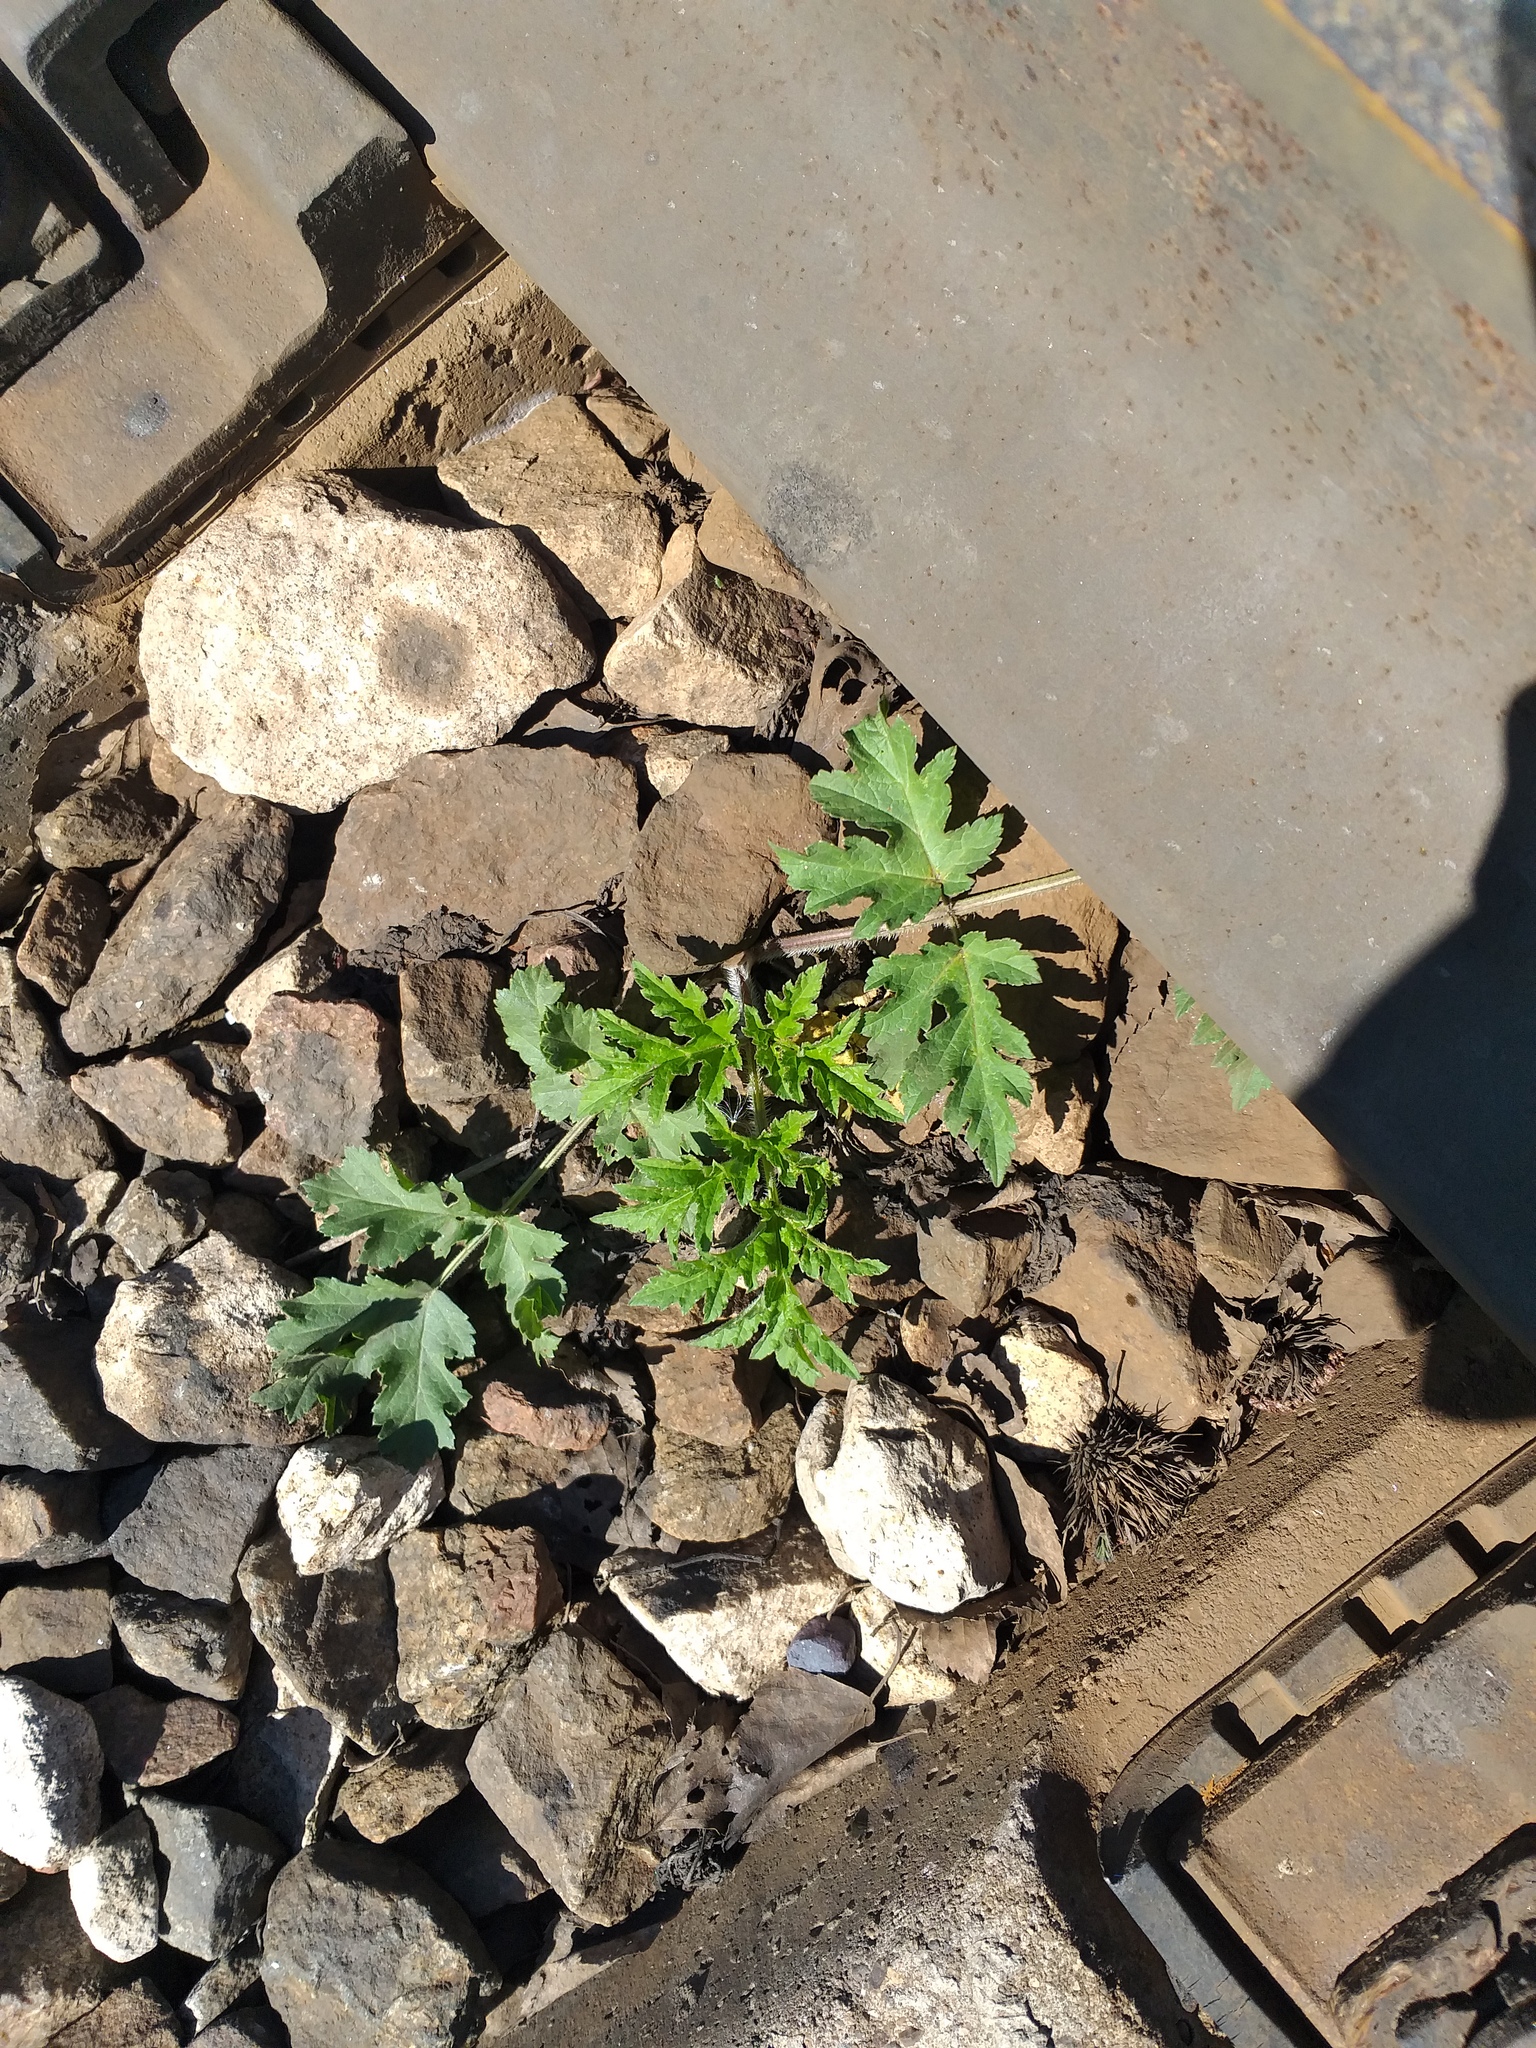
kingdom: Plantae
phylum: Tracheophyta
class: Magnoliopsida
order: Apiales
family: Apiaceae
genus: Heracleum
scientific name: Heracleum sphondylium
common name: Hogweed
